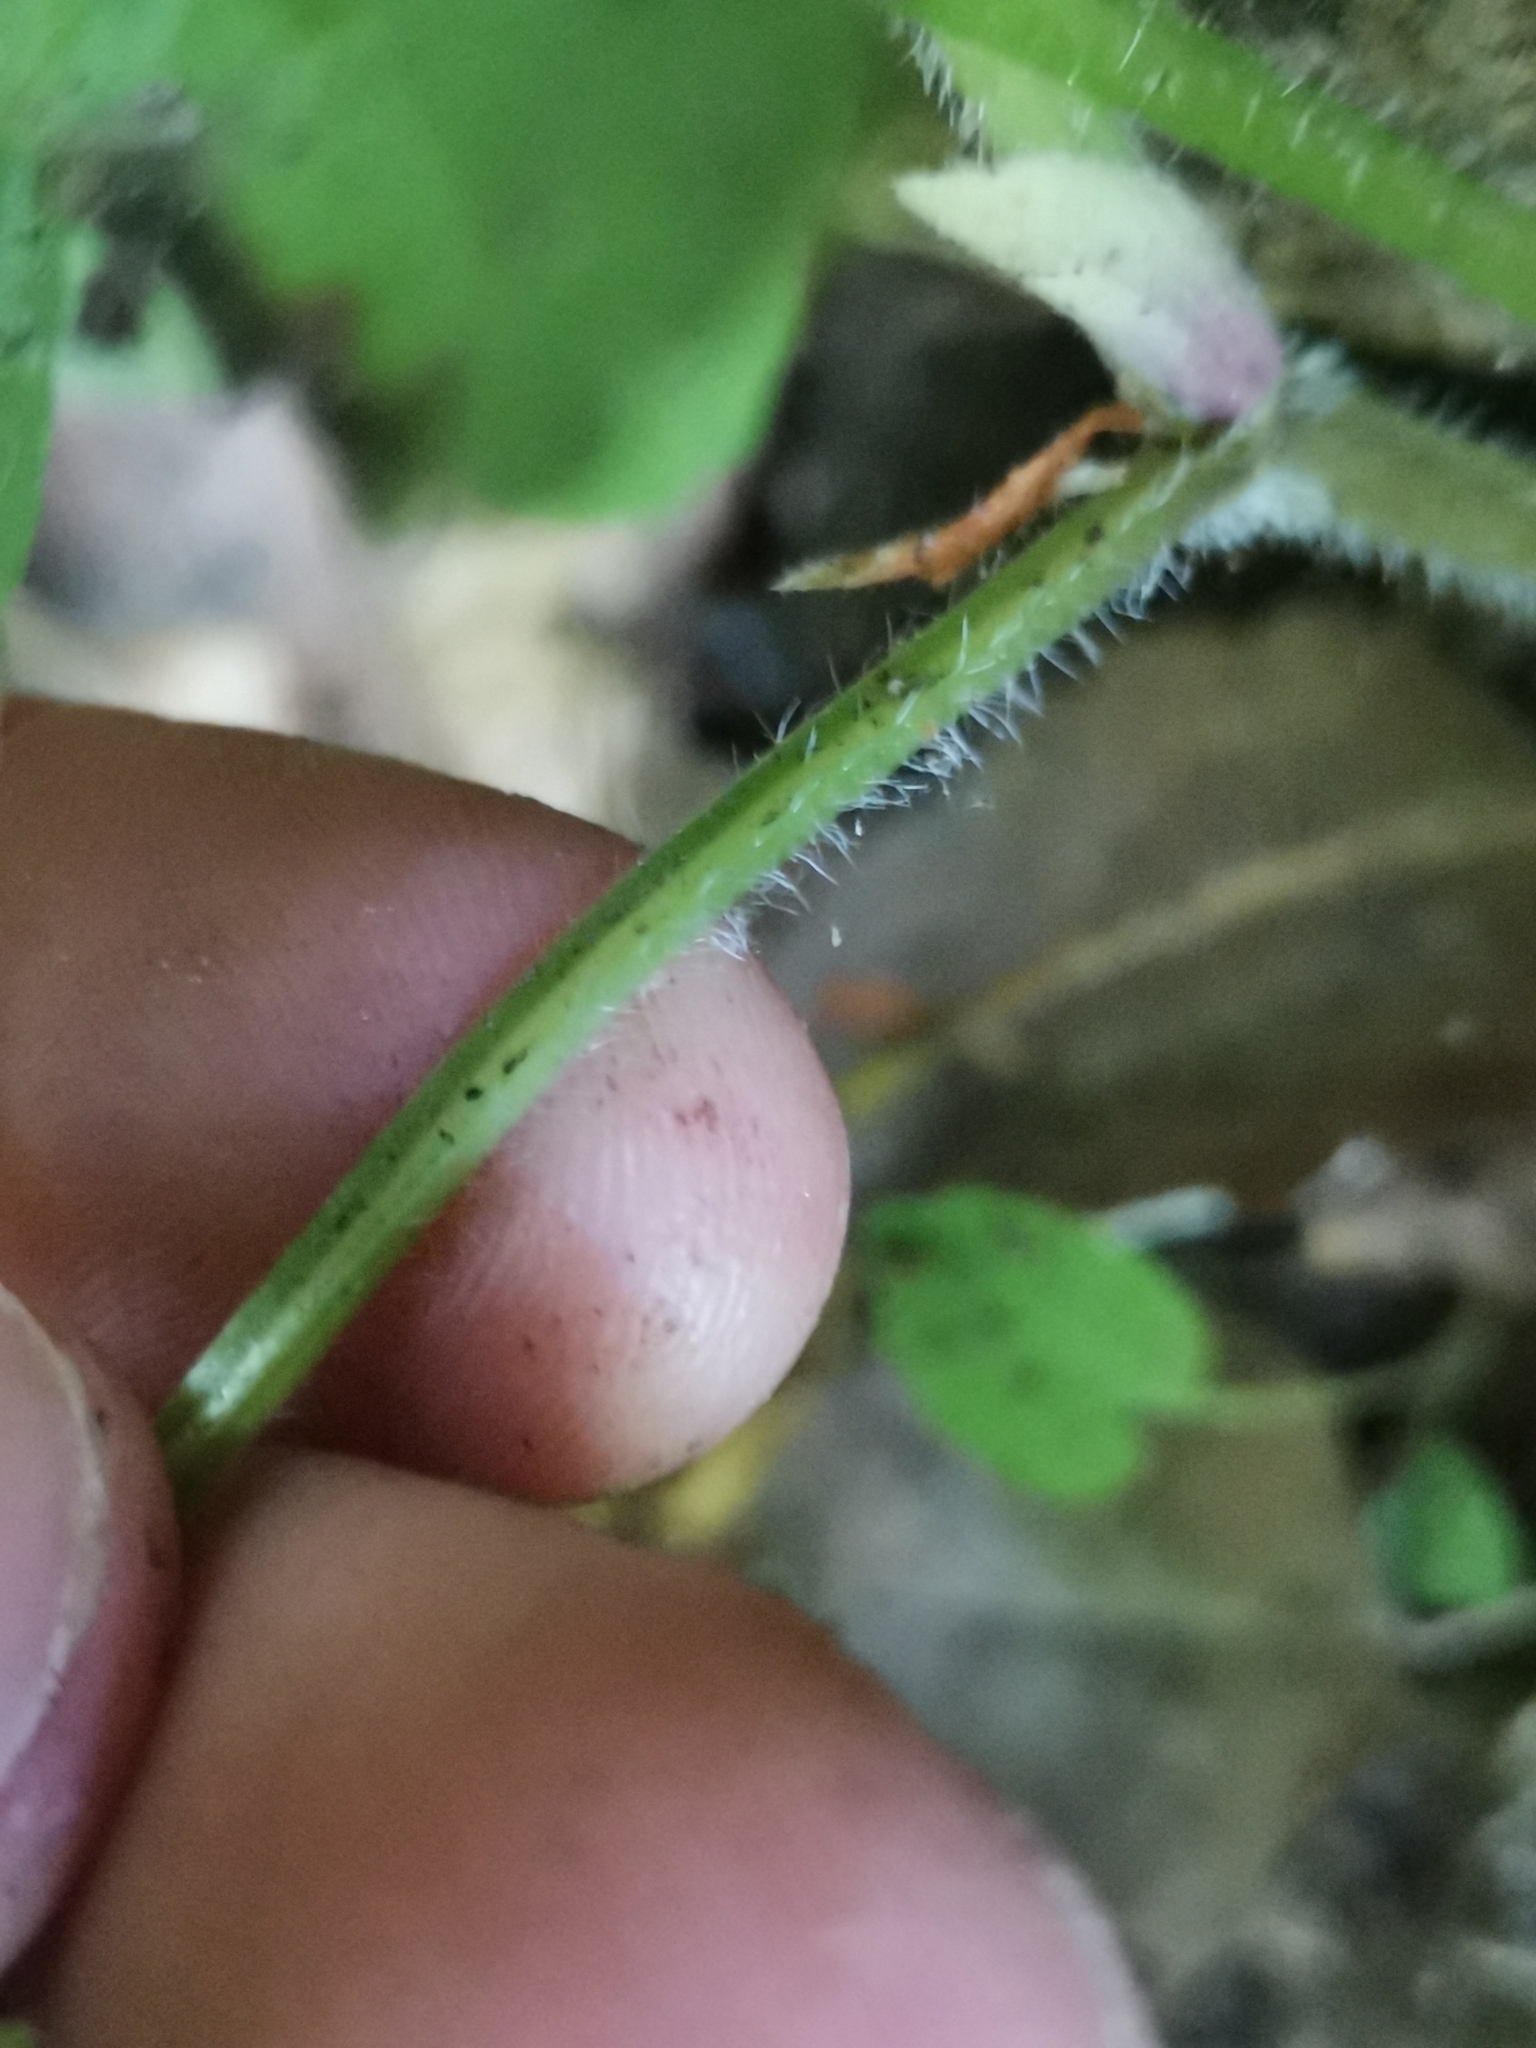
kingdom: Plantae
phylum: Tracheophyta
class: Magnoliopsida
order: Malpighiales
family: Violaceae
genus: Viola
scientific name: Viola mirabilis
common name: Wonder violet
